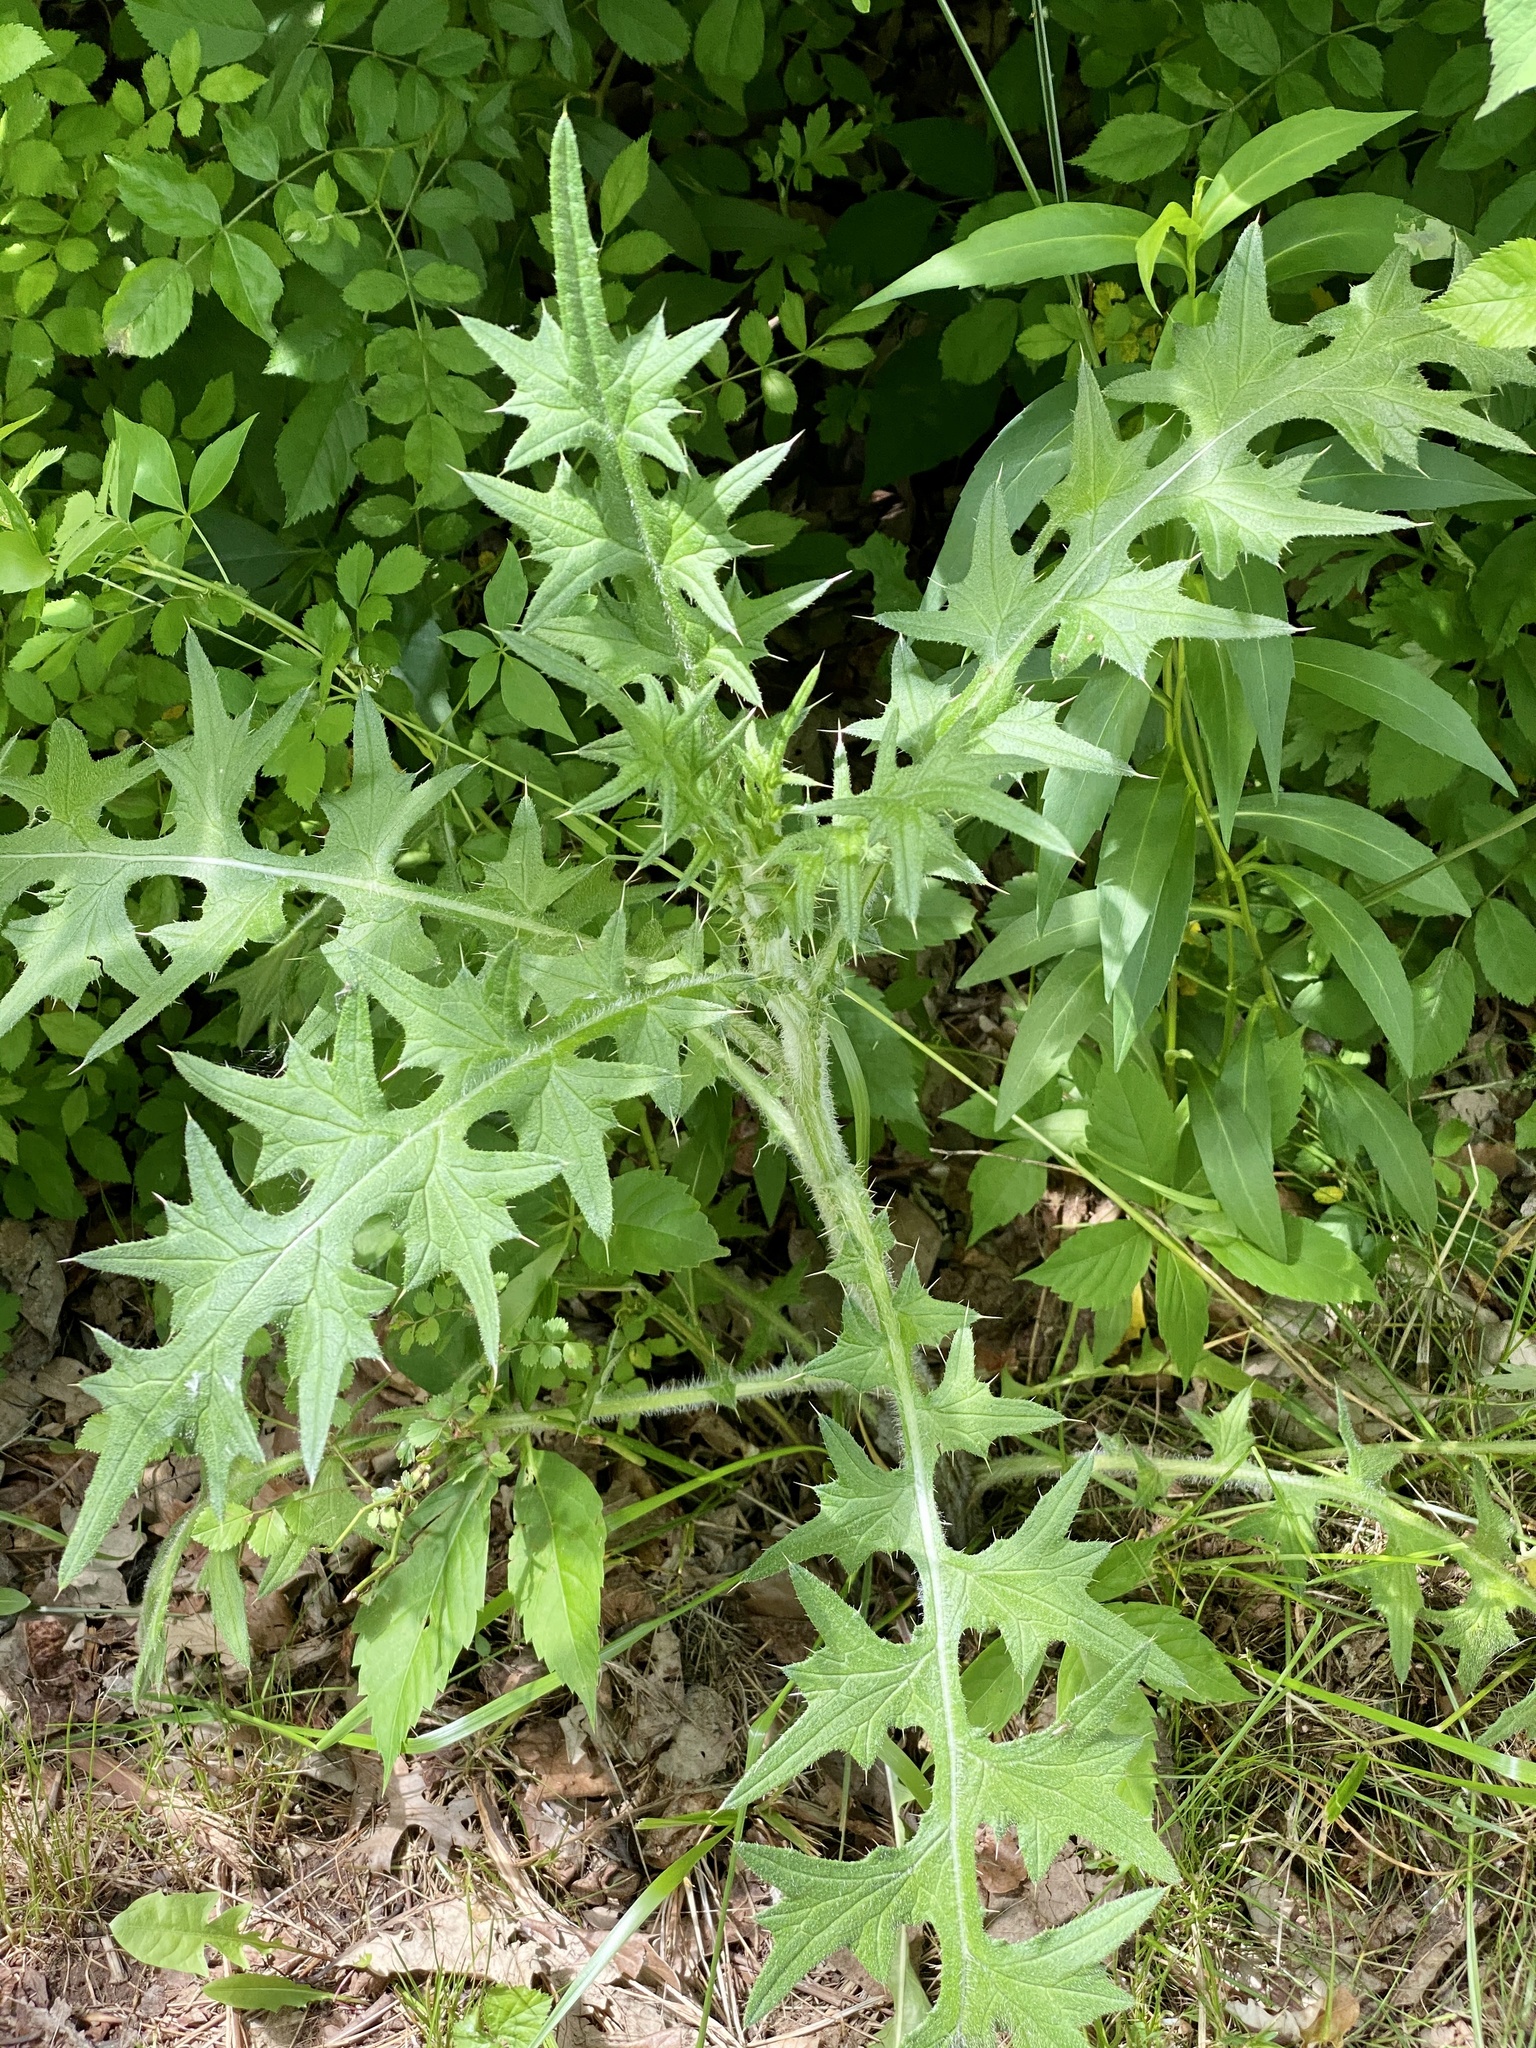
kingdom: Plantae
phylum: Tracheophyta
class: Magnoliopsida
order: Asterales
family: Asteraceae
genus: Cirsium
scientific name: Cirsium vulgare
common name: Bull thistle
